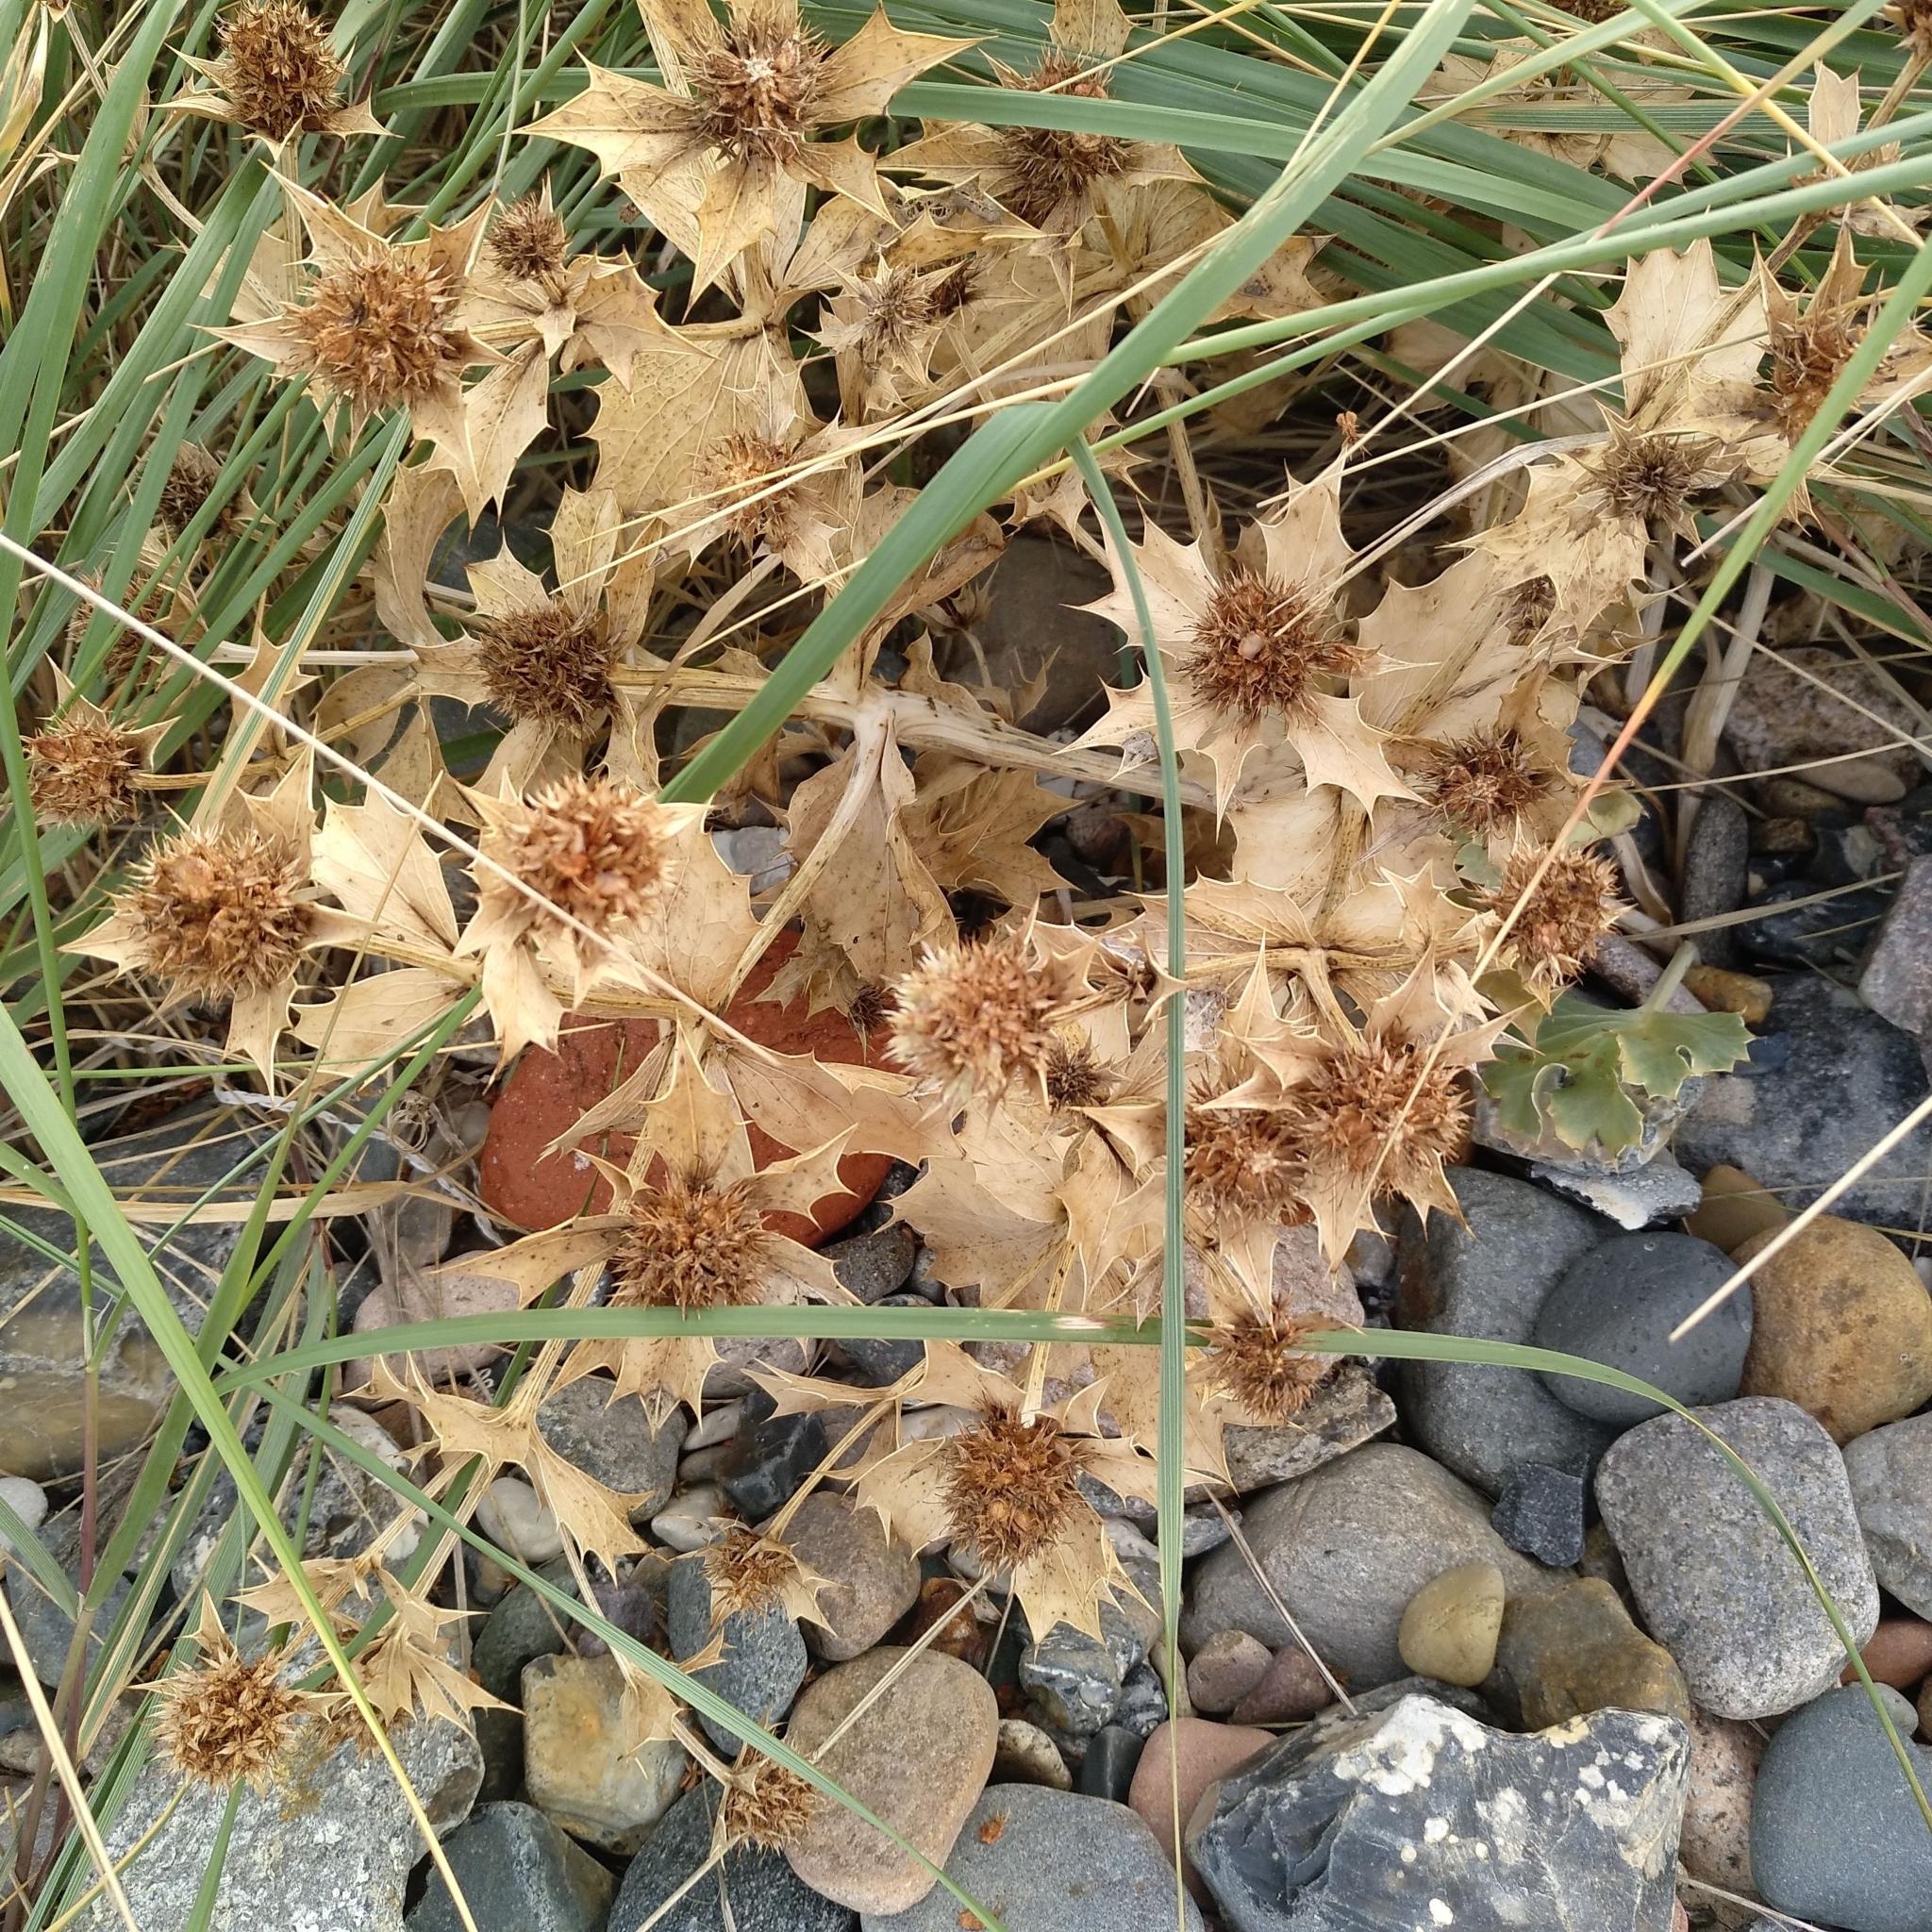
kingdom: Plantae
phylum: Tracheophyta
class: Magnoliopsida
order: Apiales
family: Apiaceae
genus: Eryngium
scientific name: Eryngium maritimum
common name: Sea-holly
